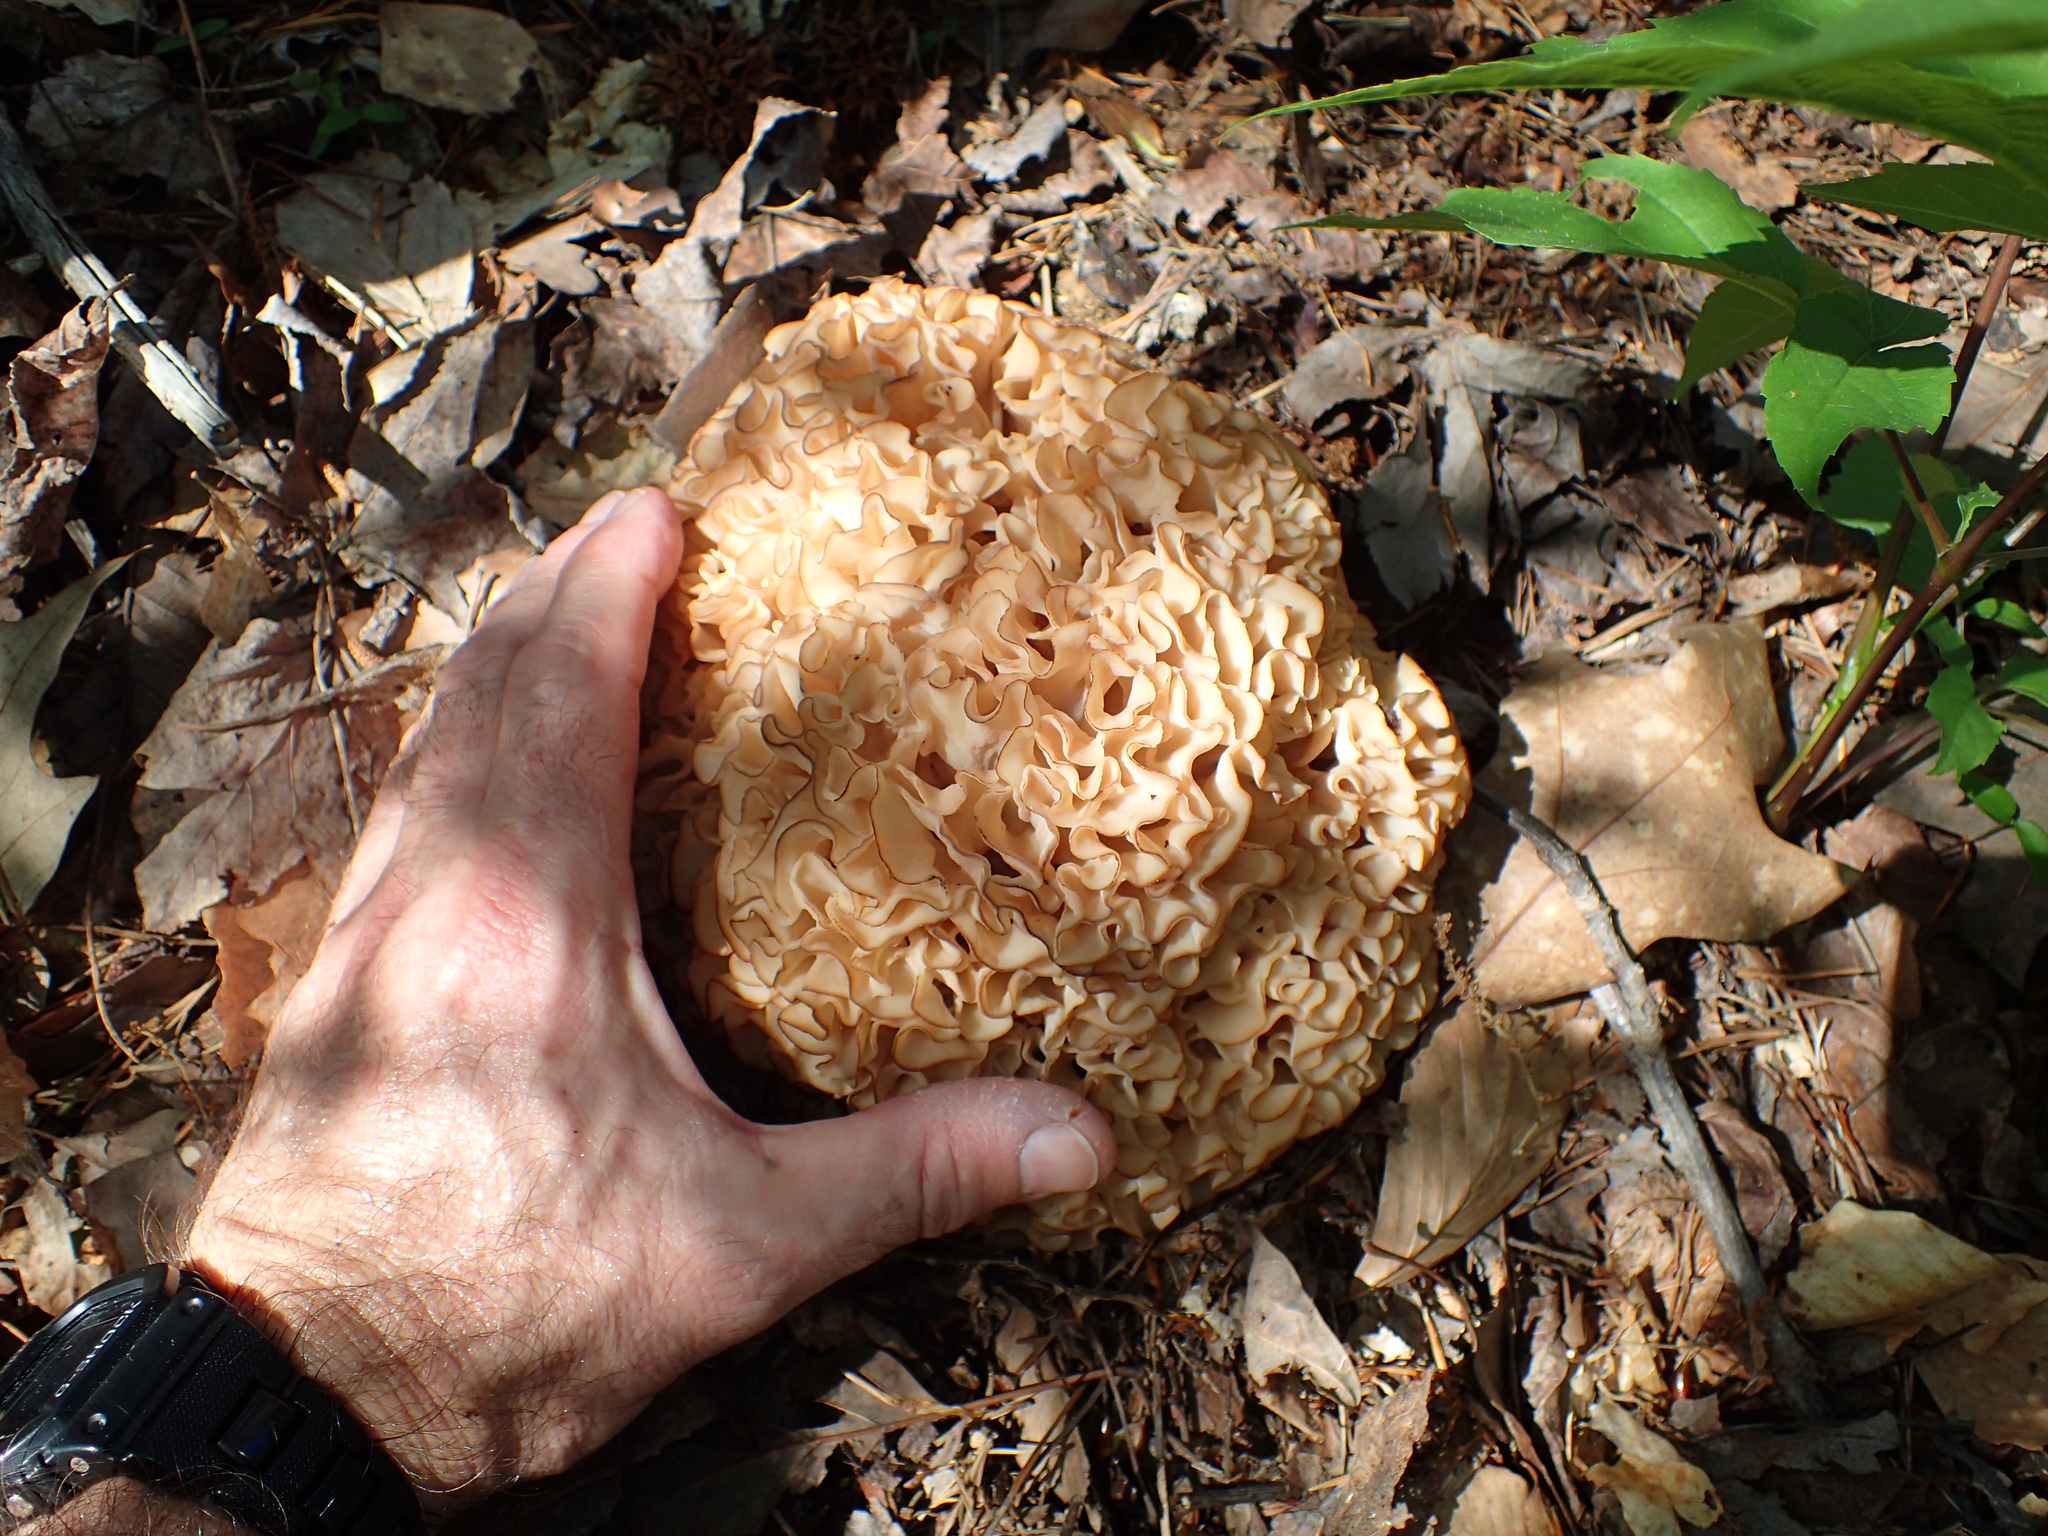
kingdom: Fungi
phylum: Basidiomycota
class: Agaricomycetes
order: Polyporales
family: Sparassidaceae
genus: Sparassis
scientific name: Sparassis americana
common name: American cauliflower mushroom
